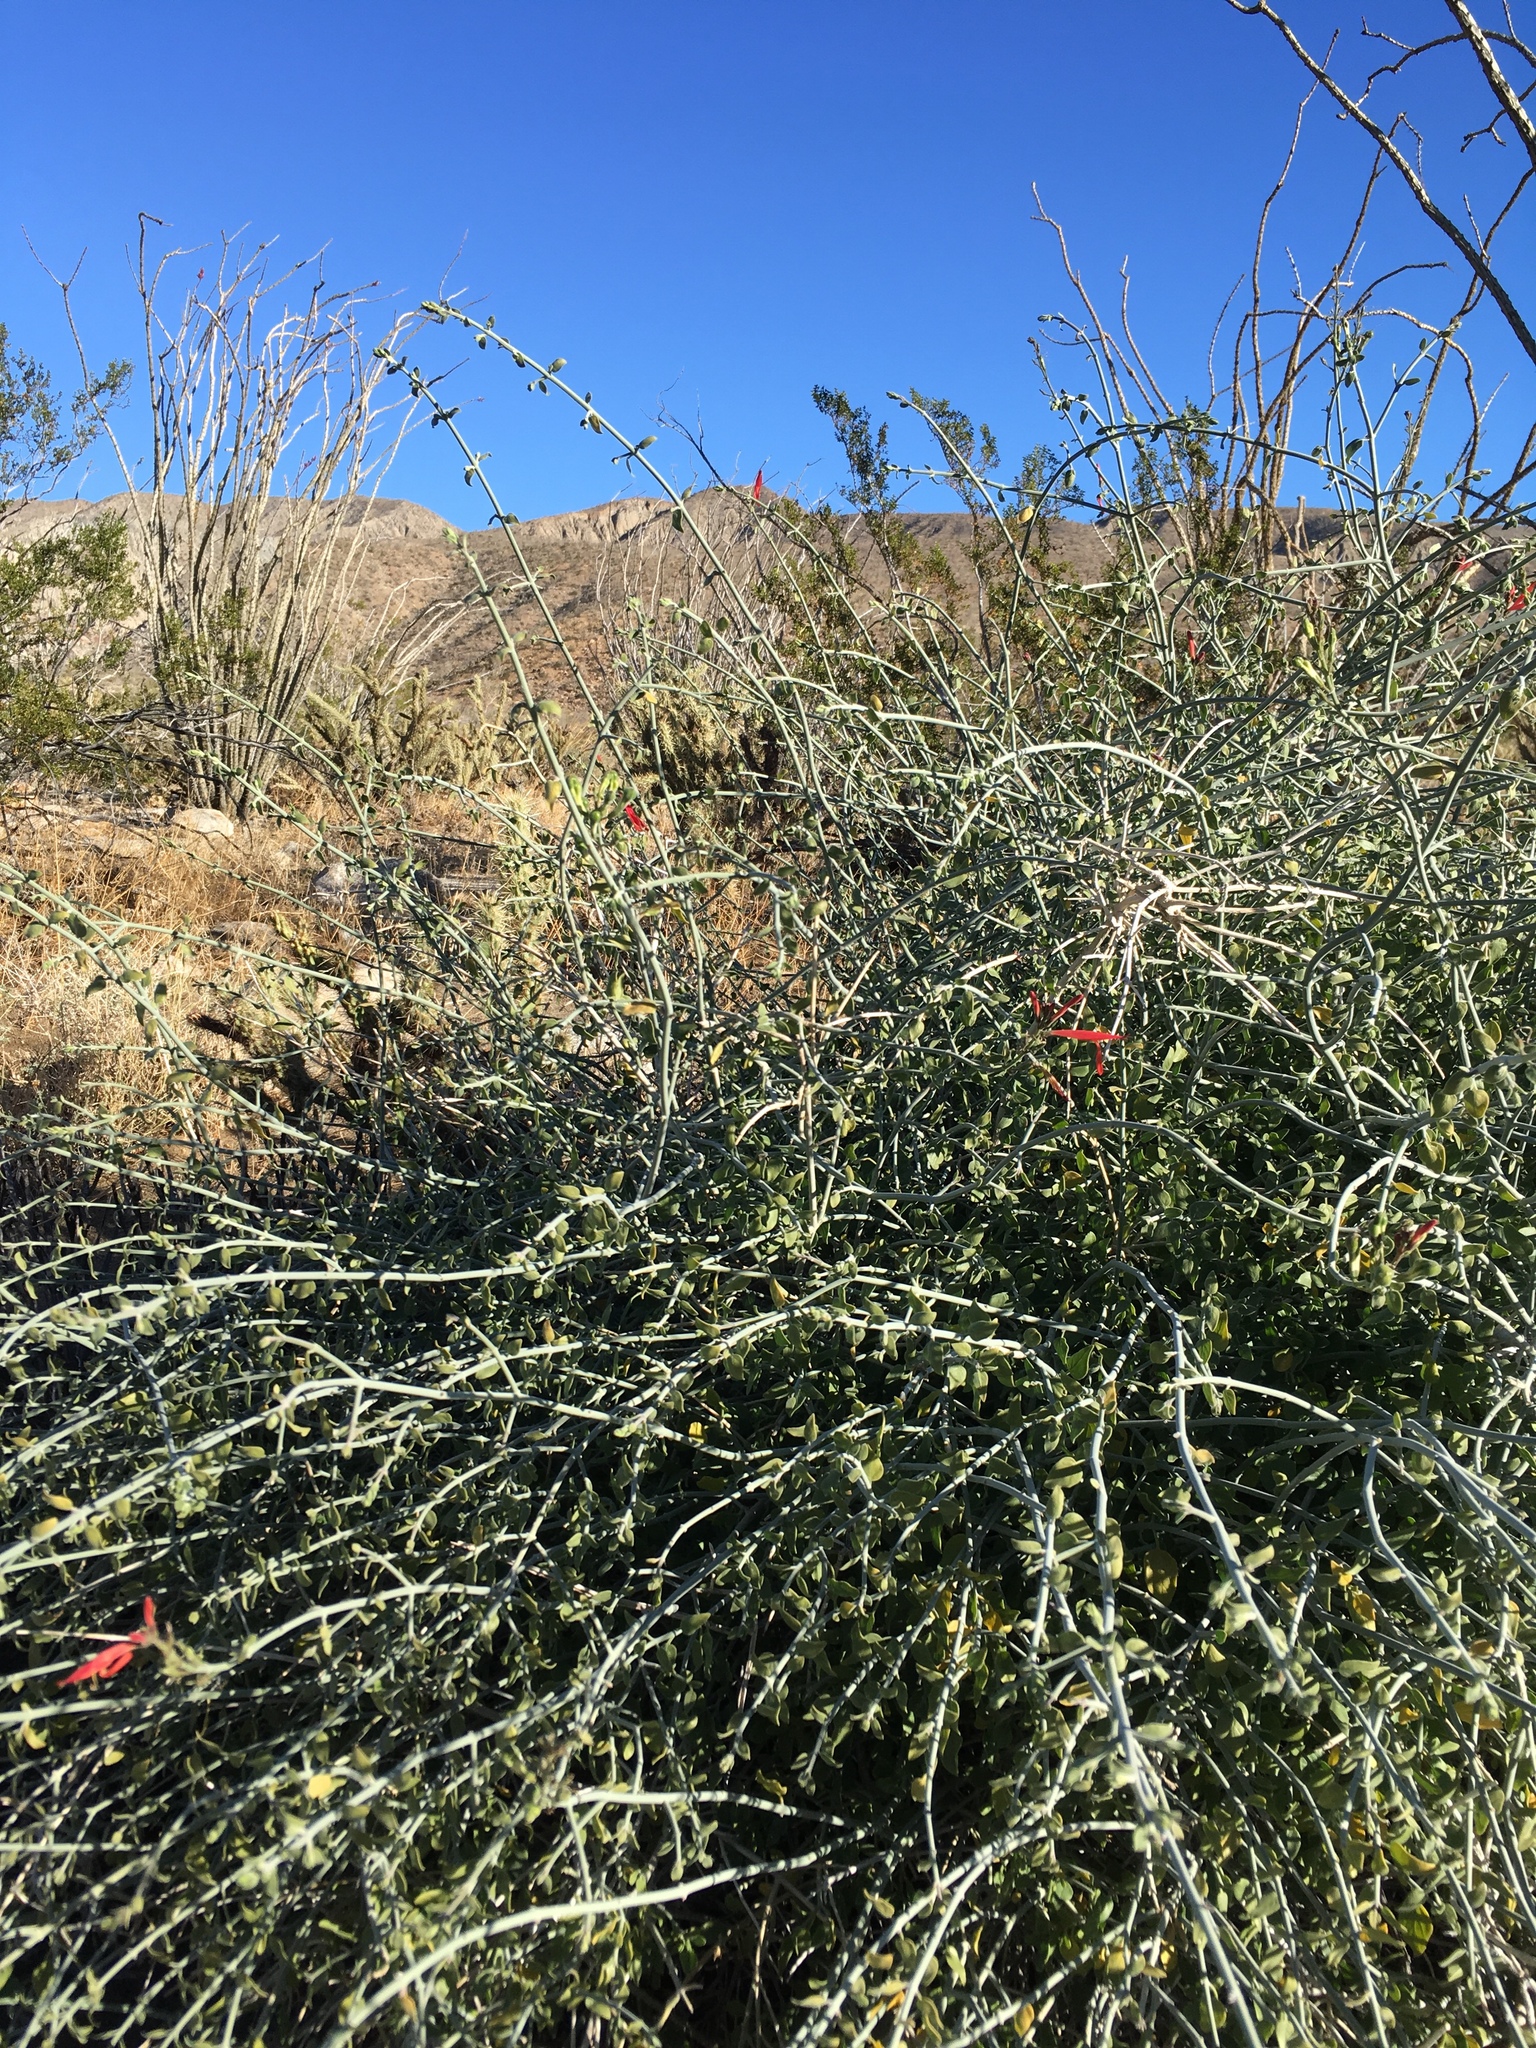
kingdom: Plantae
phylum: Tracheophyta
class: Magnoliopsida
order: Lamiales
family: Acanthaceae
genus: Justicia
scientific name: Justicia californica
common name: Chuparosa-honeysuckle
